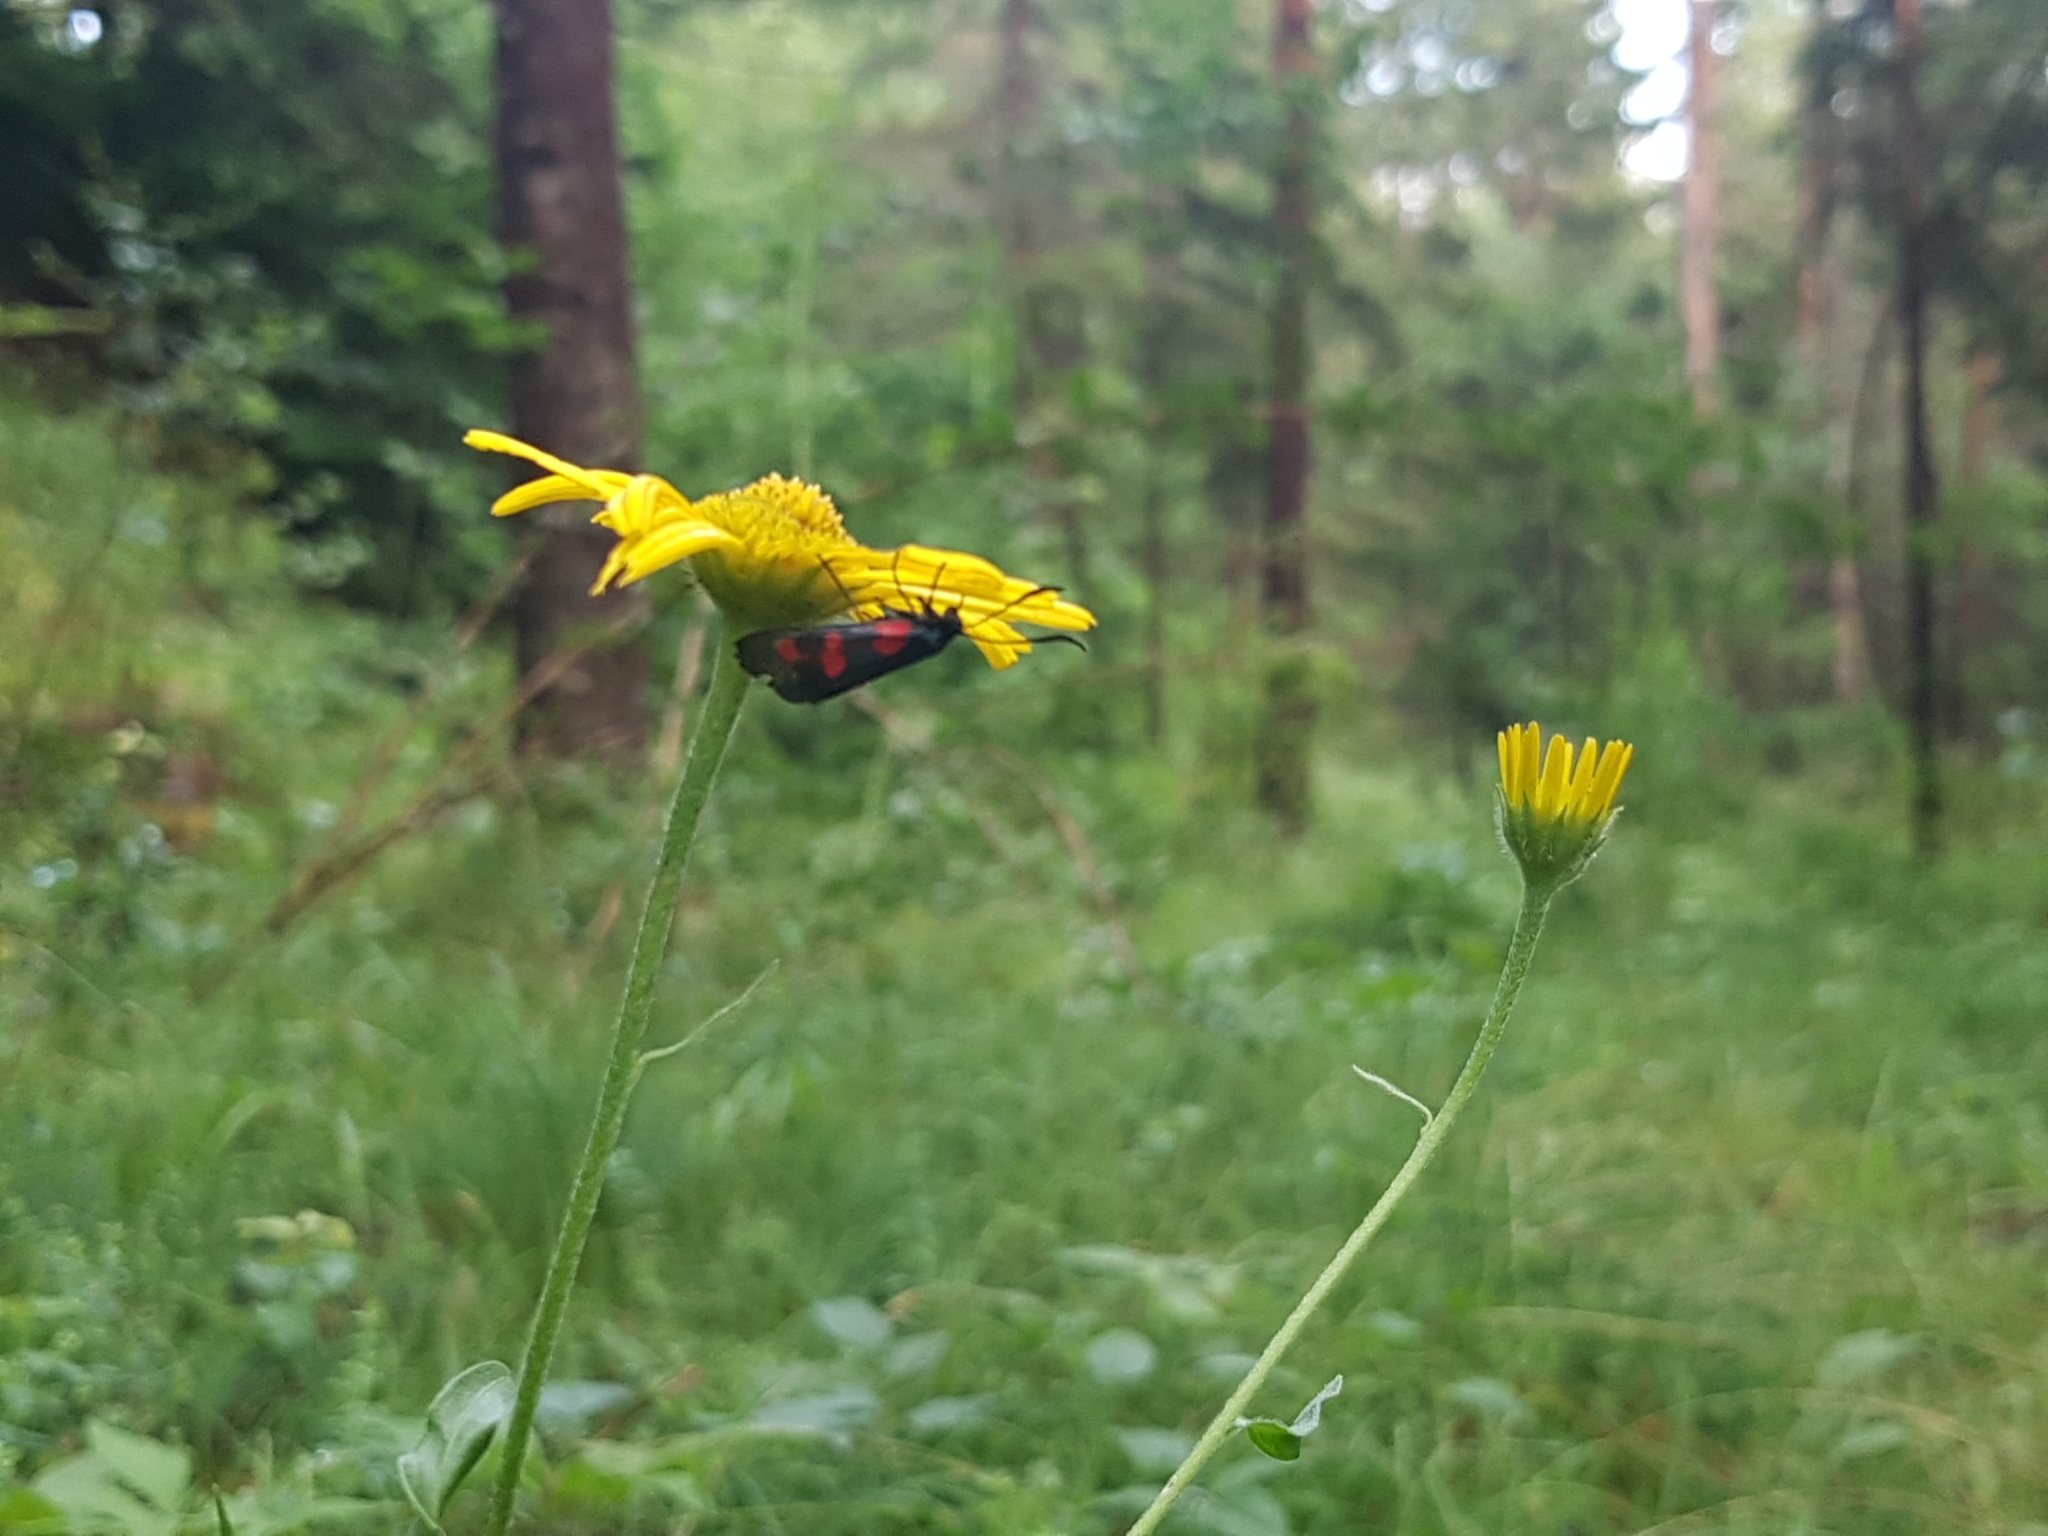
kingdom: Animalia
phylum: Arthropoda
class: Insecta
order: Lepidoptera
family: Zygaenidae
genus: Zygaena
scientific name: Zygaena trifolii
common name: Five-spot burnet
